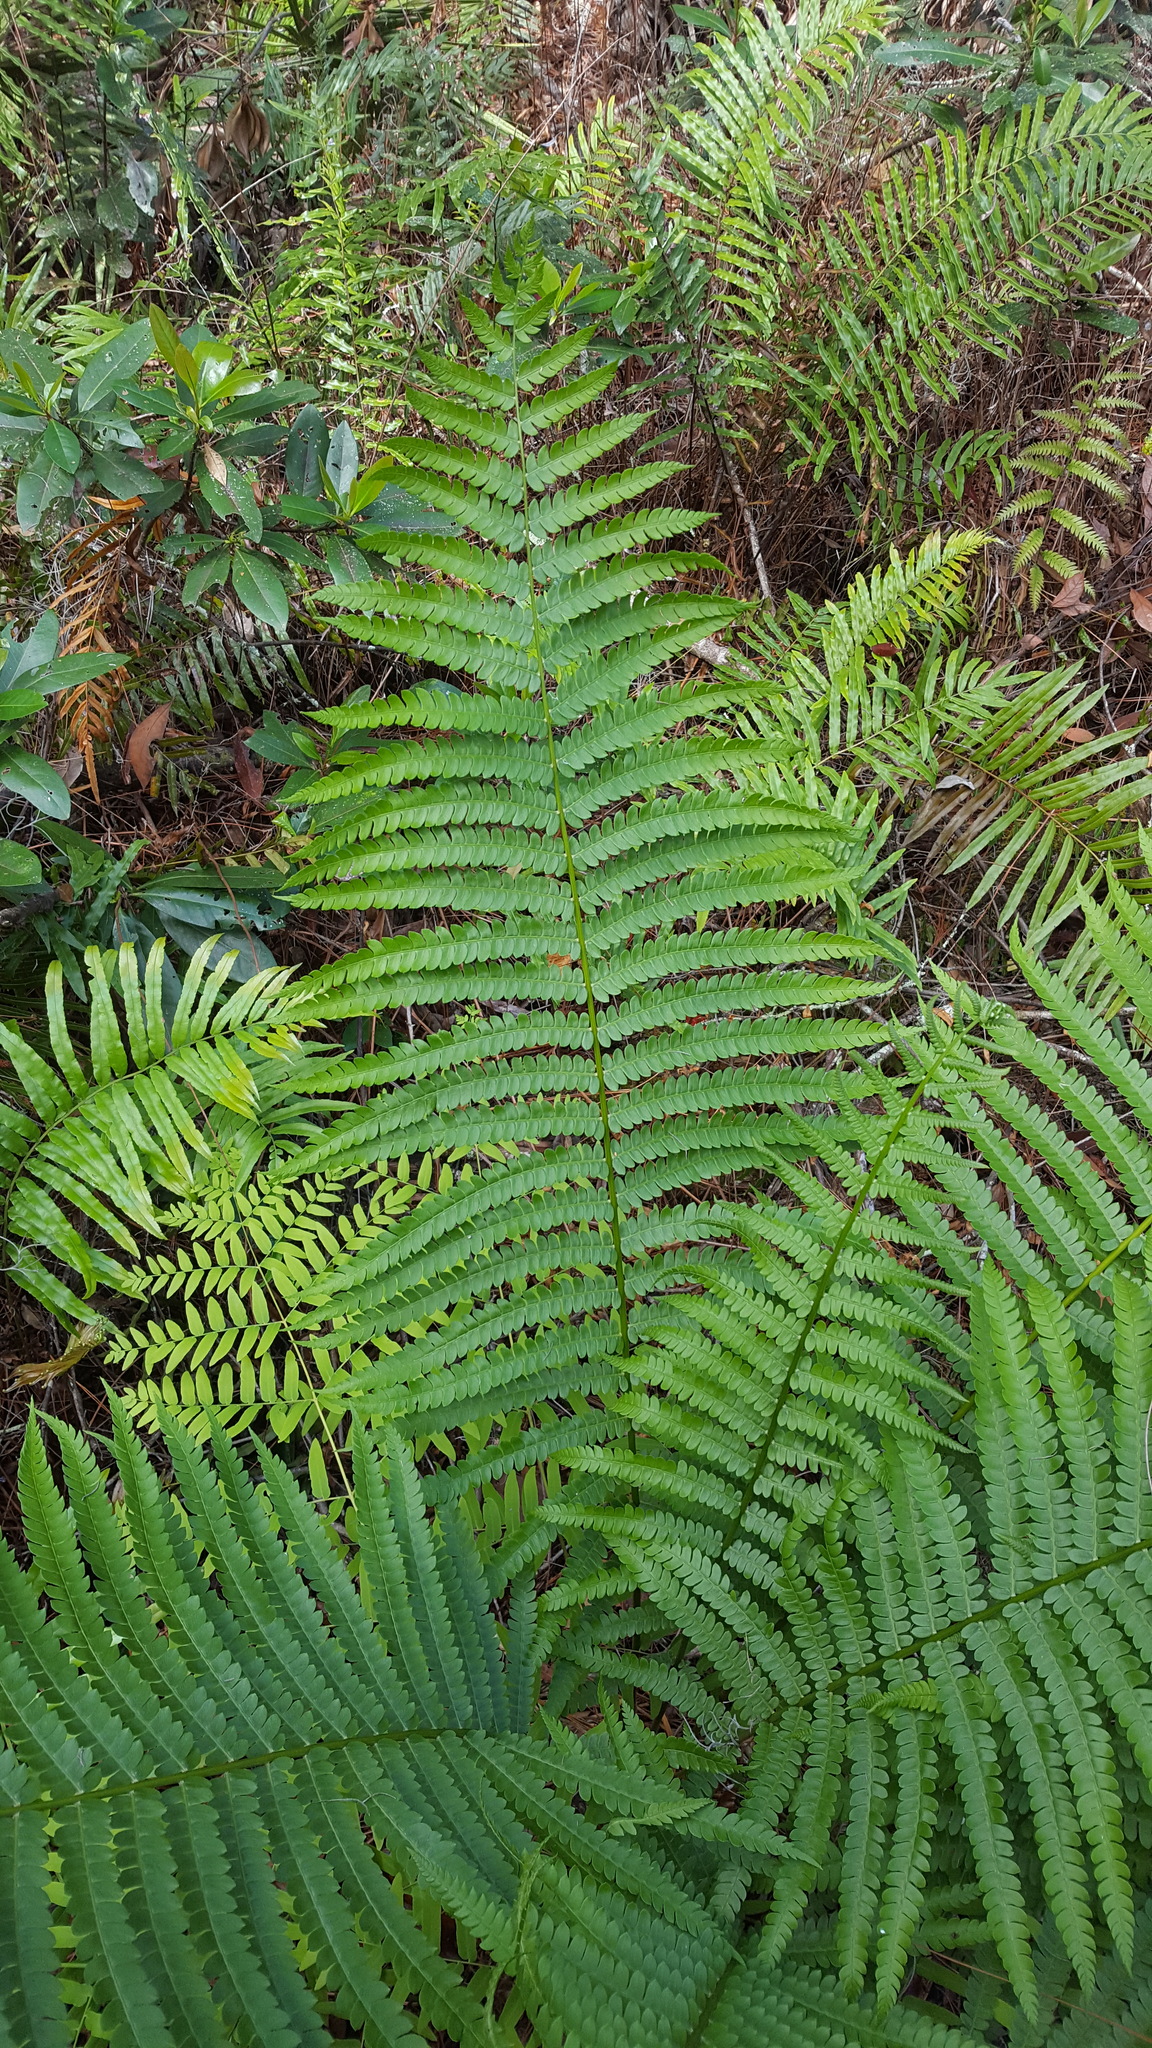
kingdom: Plantae
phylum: Tracheophyta
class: Polypodiopsida
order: Osmundales
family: Osmundaceae
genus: Osmundastrum
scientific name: Osmundastrum cinnamomeum
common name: Cinnamon fern
